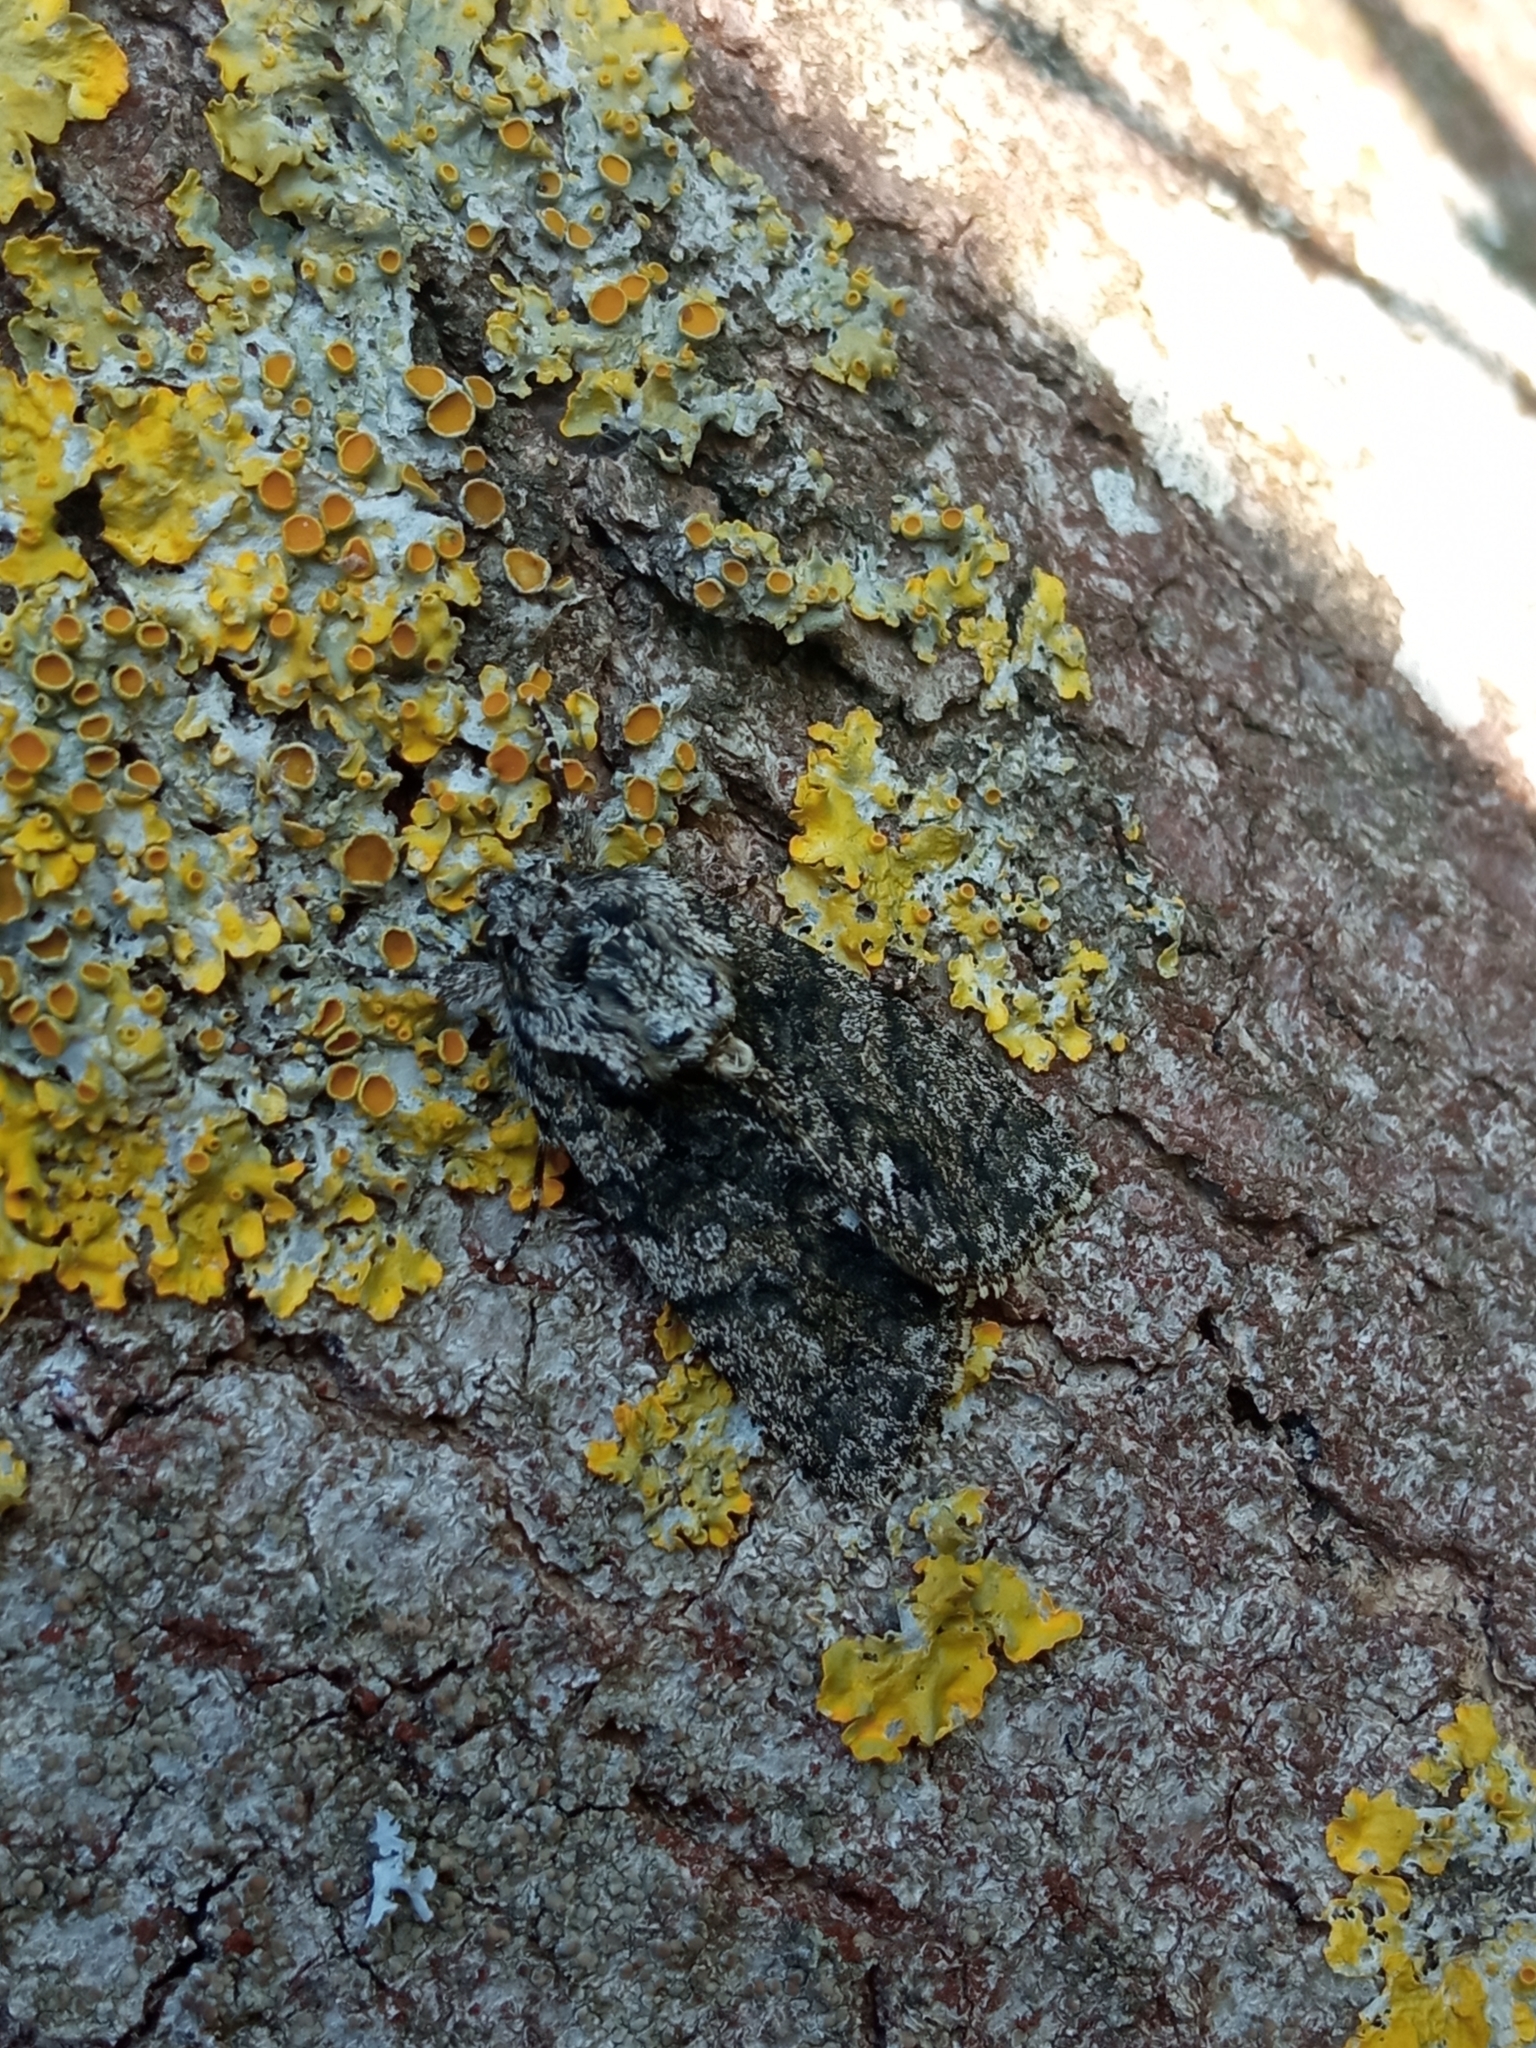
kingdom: Animalia
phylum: Arthropoda
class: Insecta
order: Lepidoptera
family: Noctuidae
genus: Acronicta
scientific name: Acronicta rumicis
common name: Knot grass
